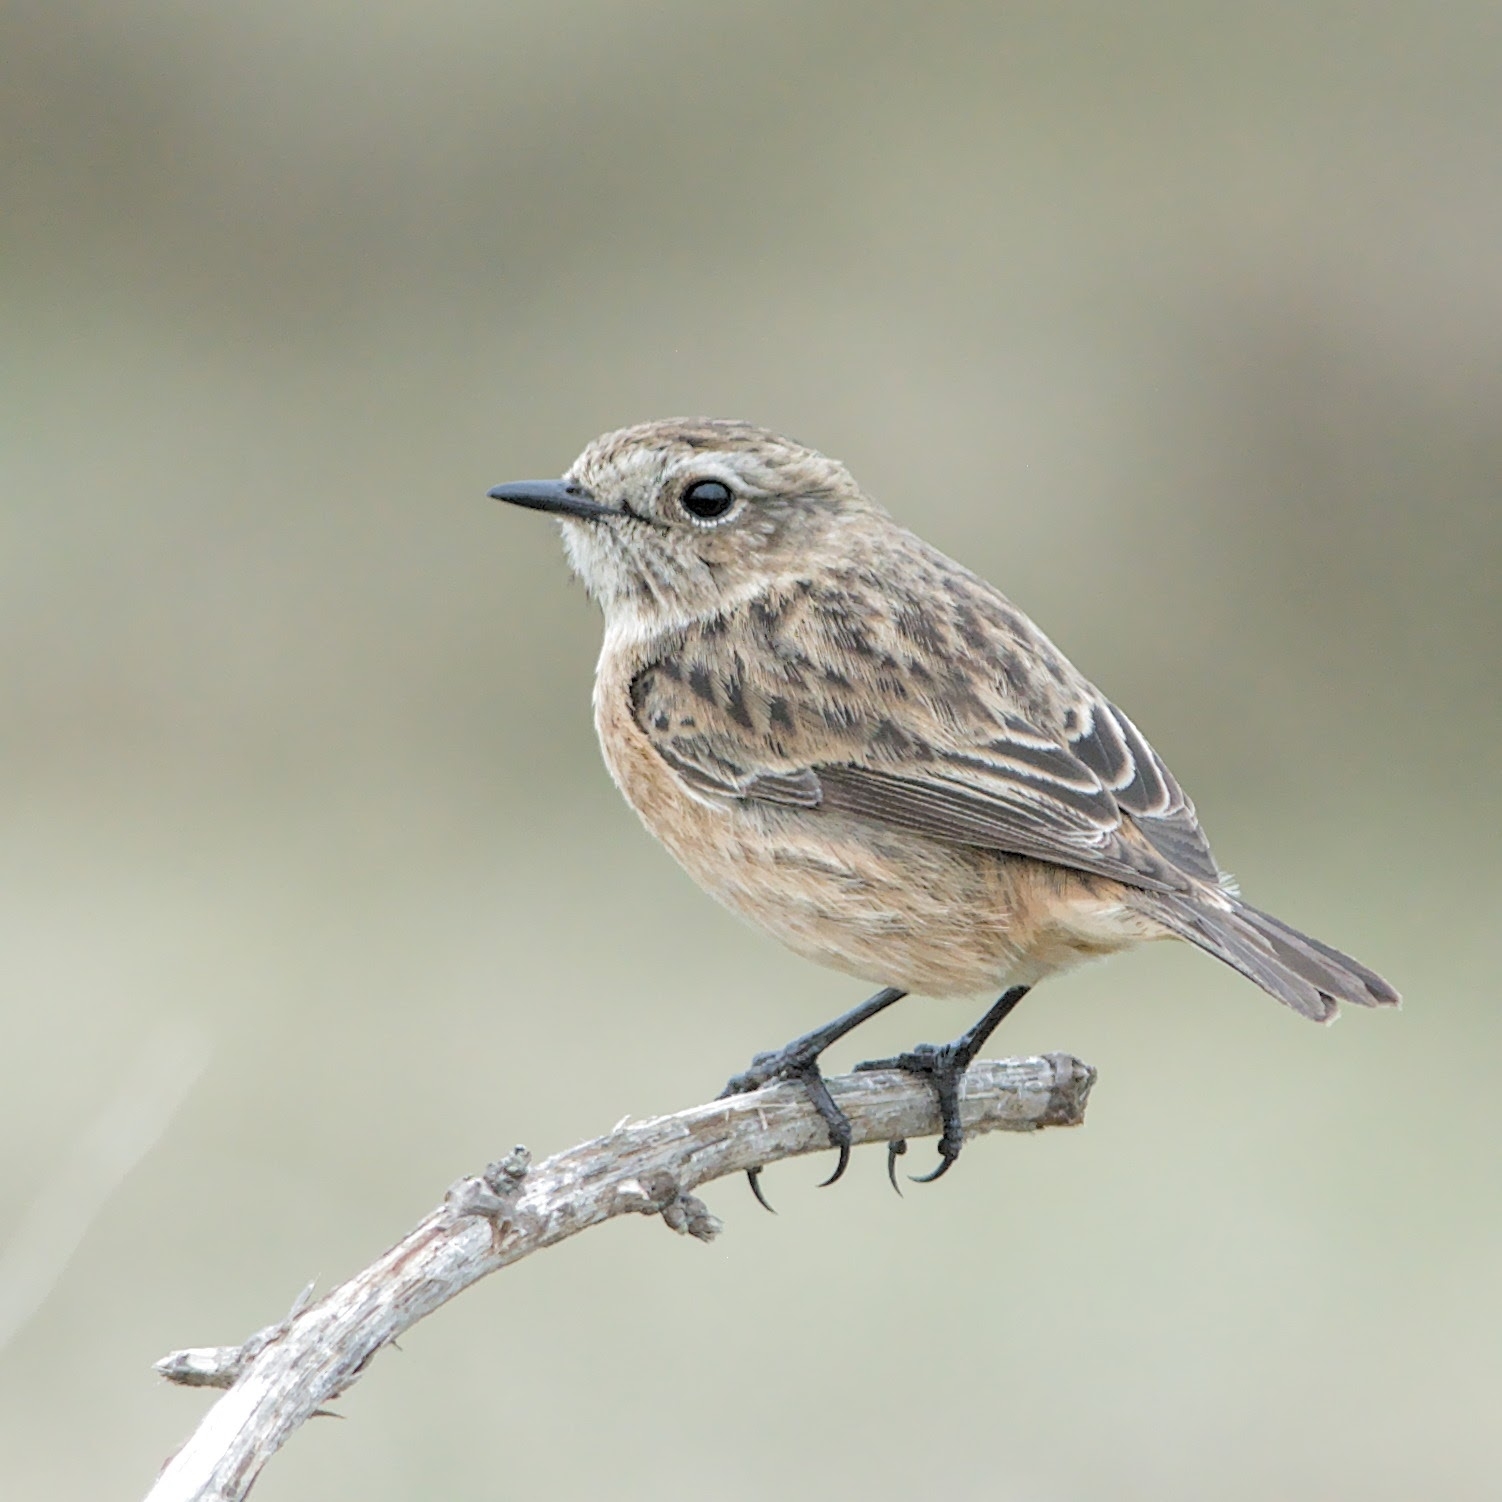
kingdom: Animalia
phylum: Chordata
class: Aves
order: Passeriformes
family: Muscicapidae
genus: Saxicola
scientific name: Saxicola rubicola
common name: European stonechat
